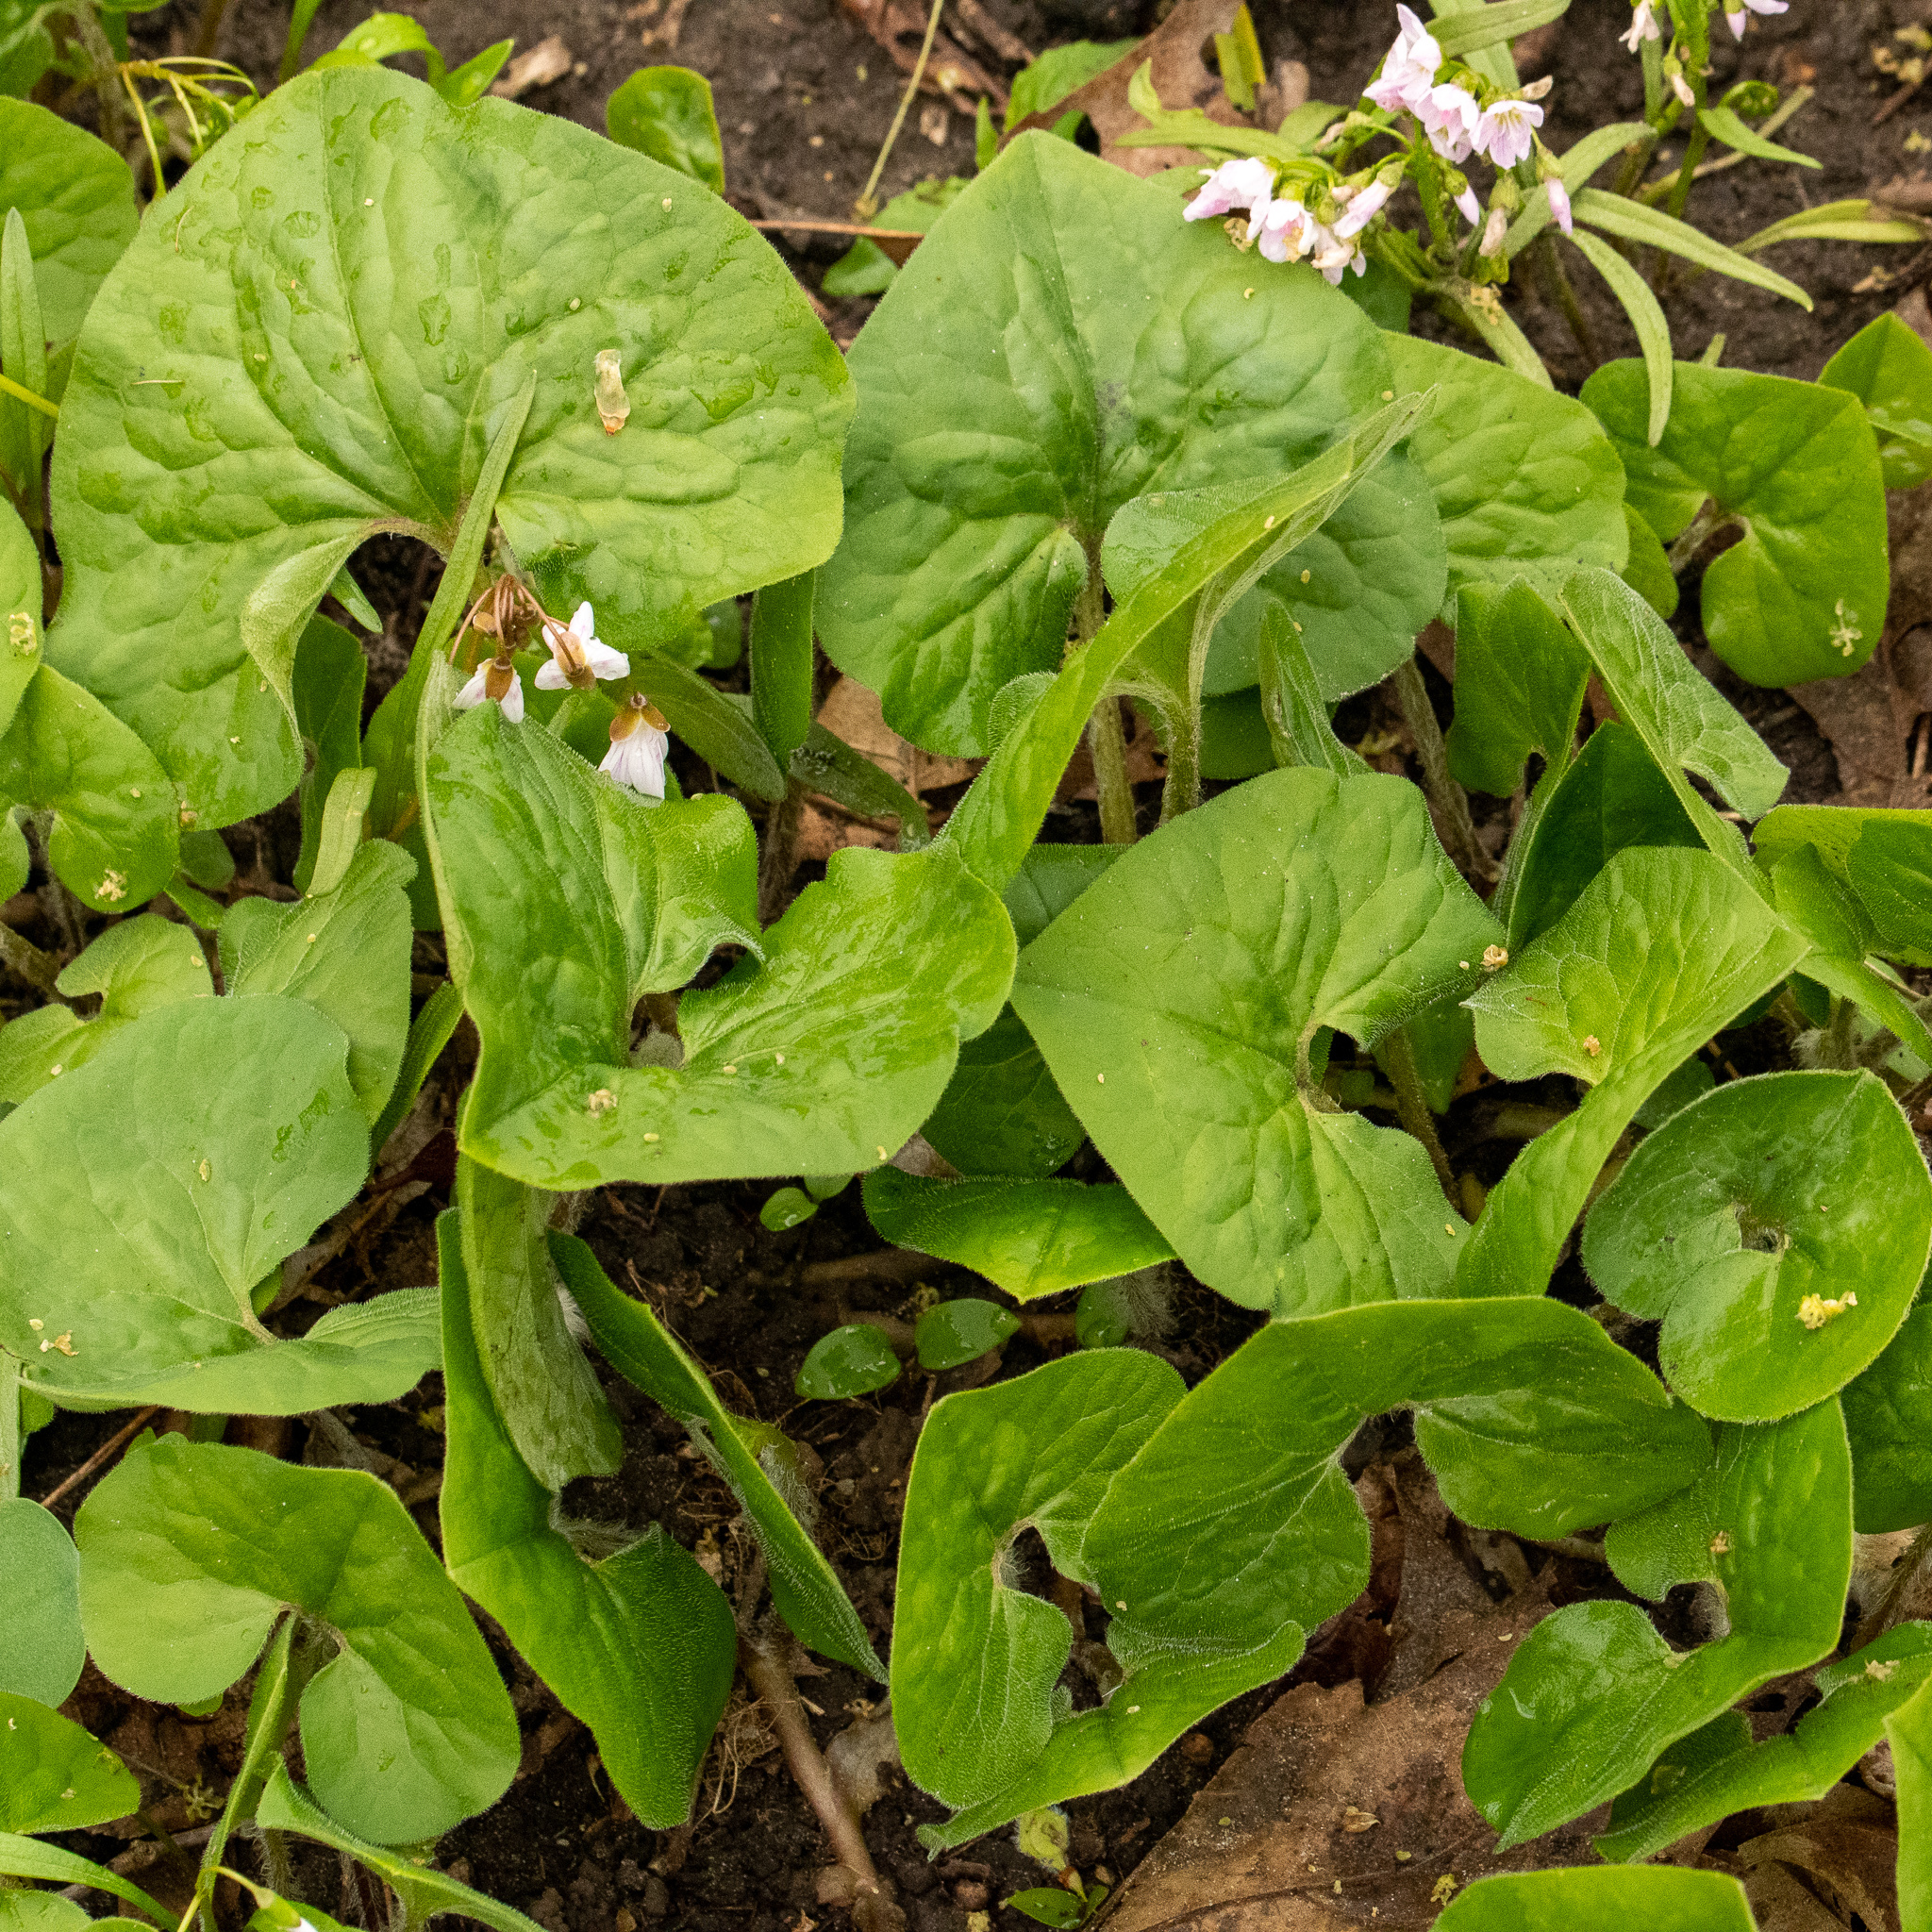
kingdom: Plantae
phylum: Tracheophyta
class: Magnoliopsida
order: Piperales
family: Aristolochiaceae
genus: Asarum
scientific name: Asarum canadense
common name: Wild ginger
